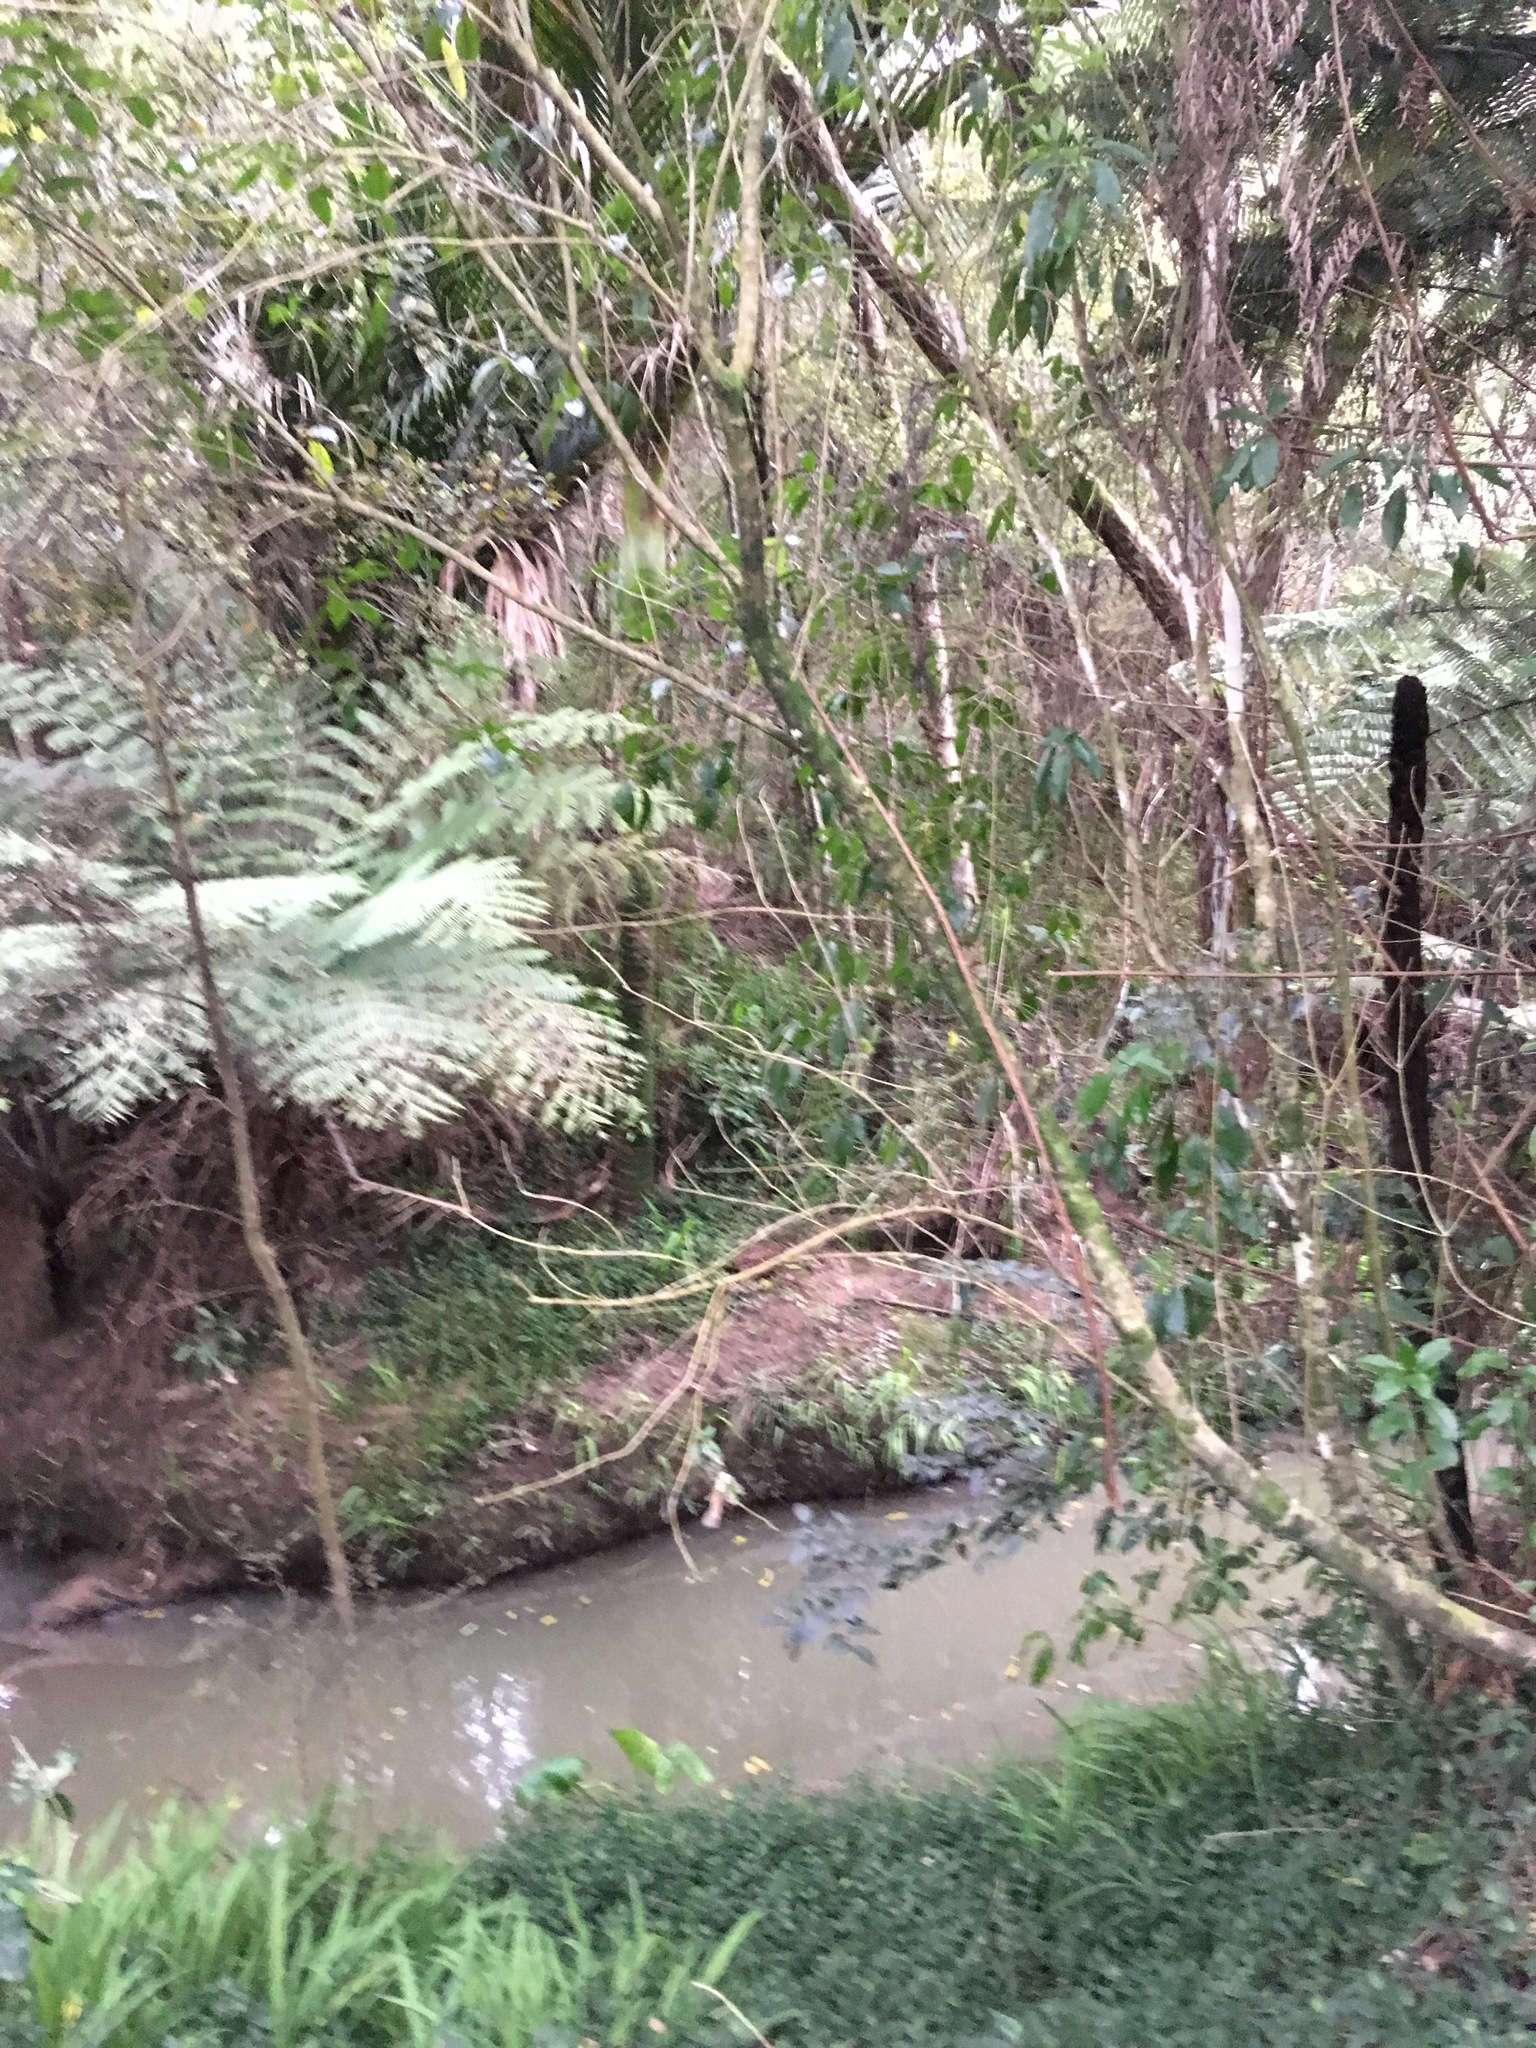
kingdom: Plantae
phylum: Tracheophyta
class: Liliopsida
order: Commelinales
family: Commelinaceae
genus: Tradescantia
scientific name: Tradescantia fluminensis
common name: Wandering-jew
